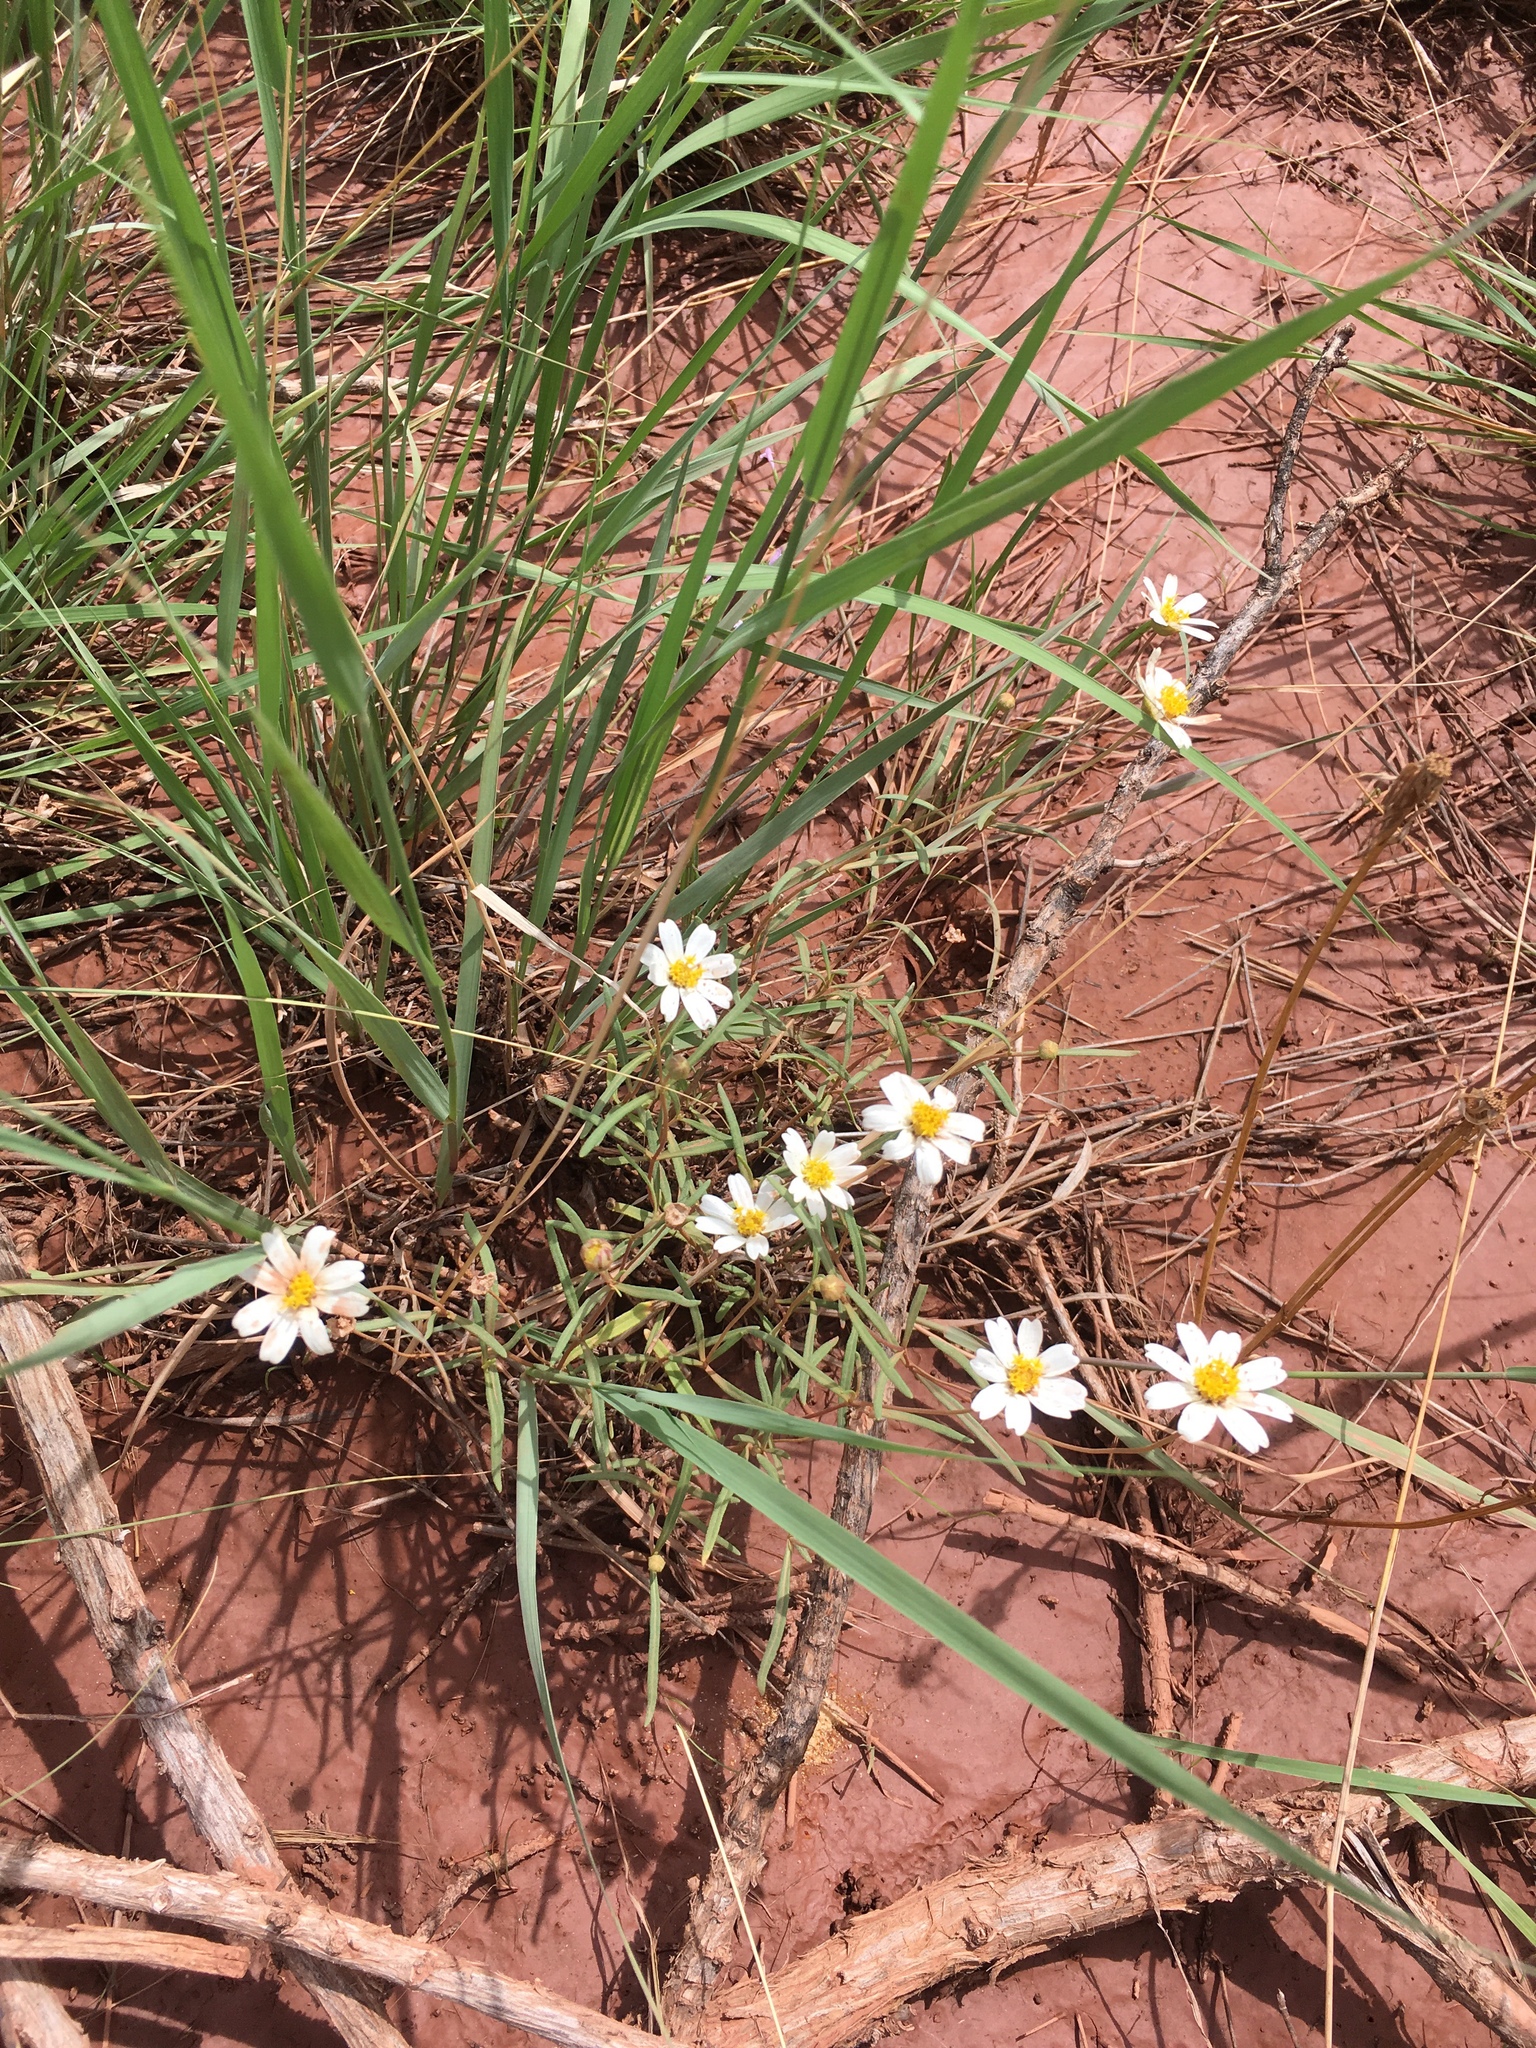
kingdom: Plantae
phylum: Tracheophyta
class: Magnoliopsida
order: Asterales
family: Asteraceae
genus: Melampodium
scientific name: Melampodium leucanthum
